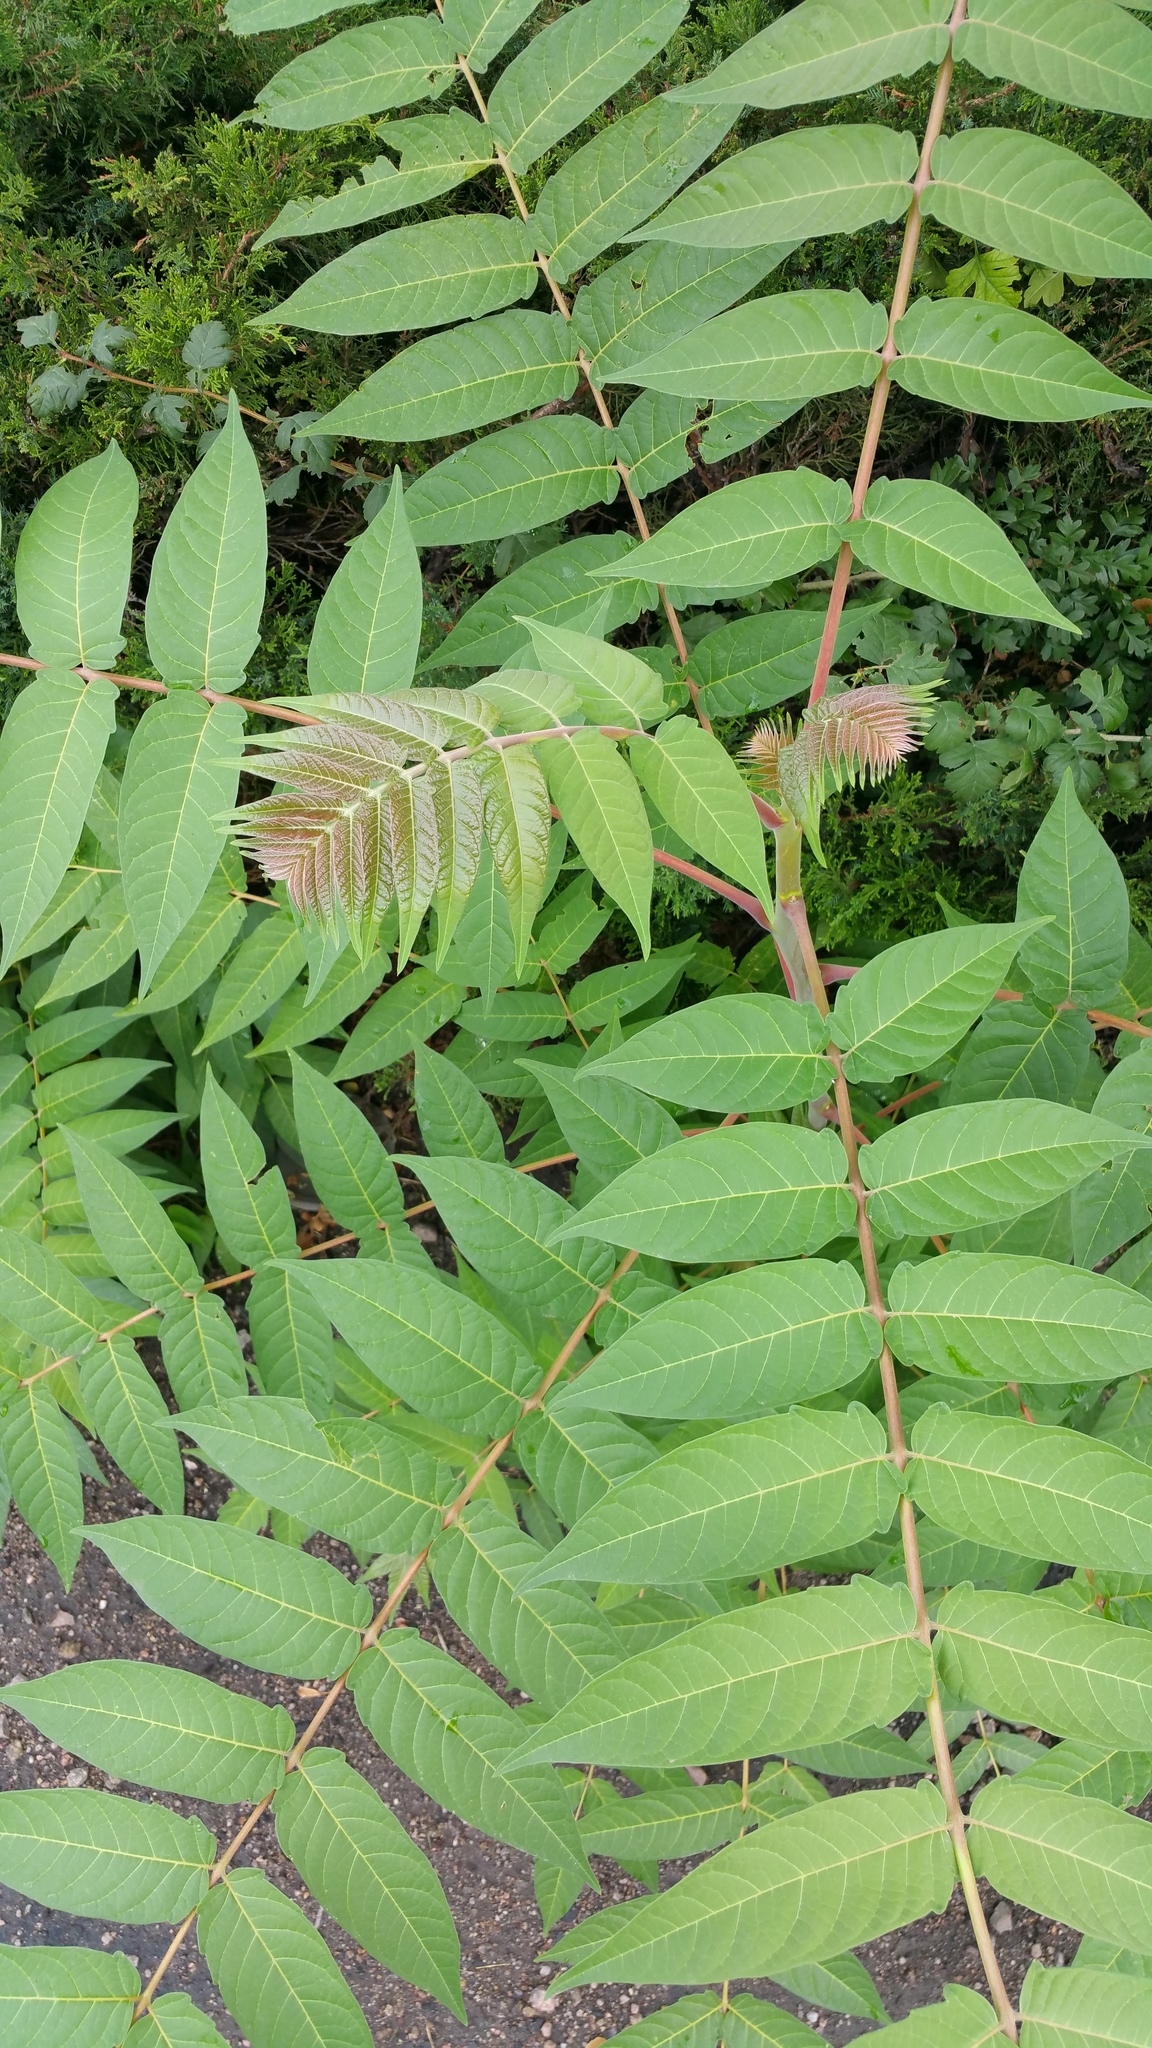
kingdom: Plantae
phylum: Tracheophyta
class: Magnoliopsida
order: Sapindales
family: Simaroubaceae
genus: Ailanthus
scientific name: Ailanthus altissima
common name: Tree-of-heaven
